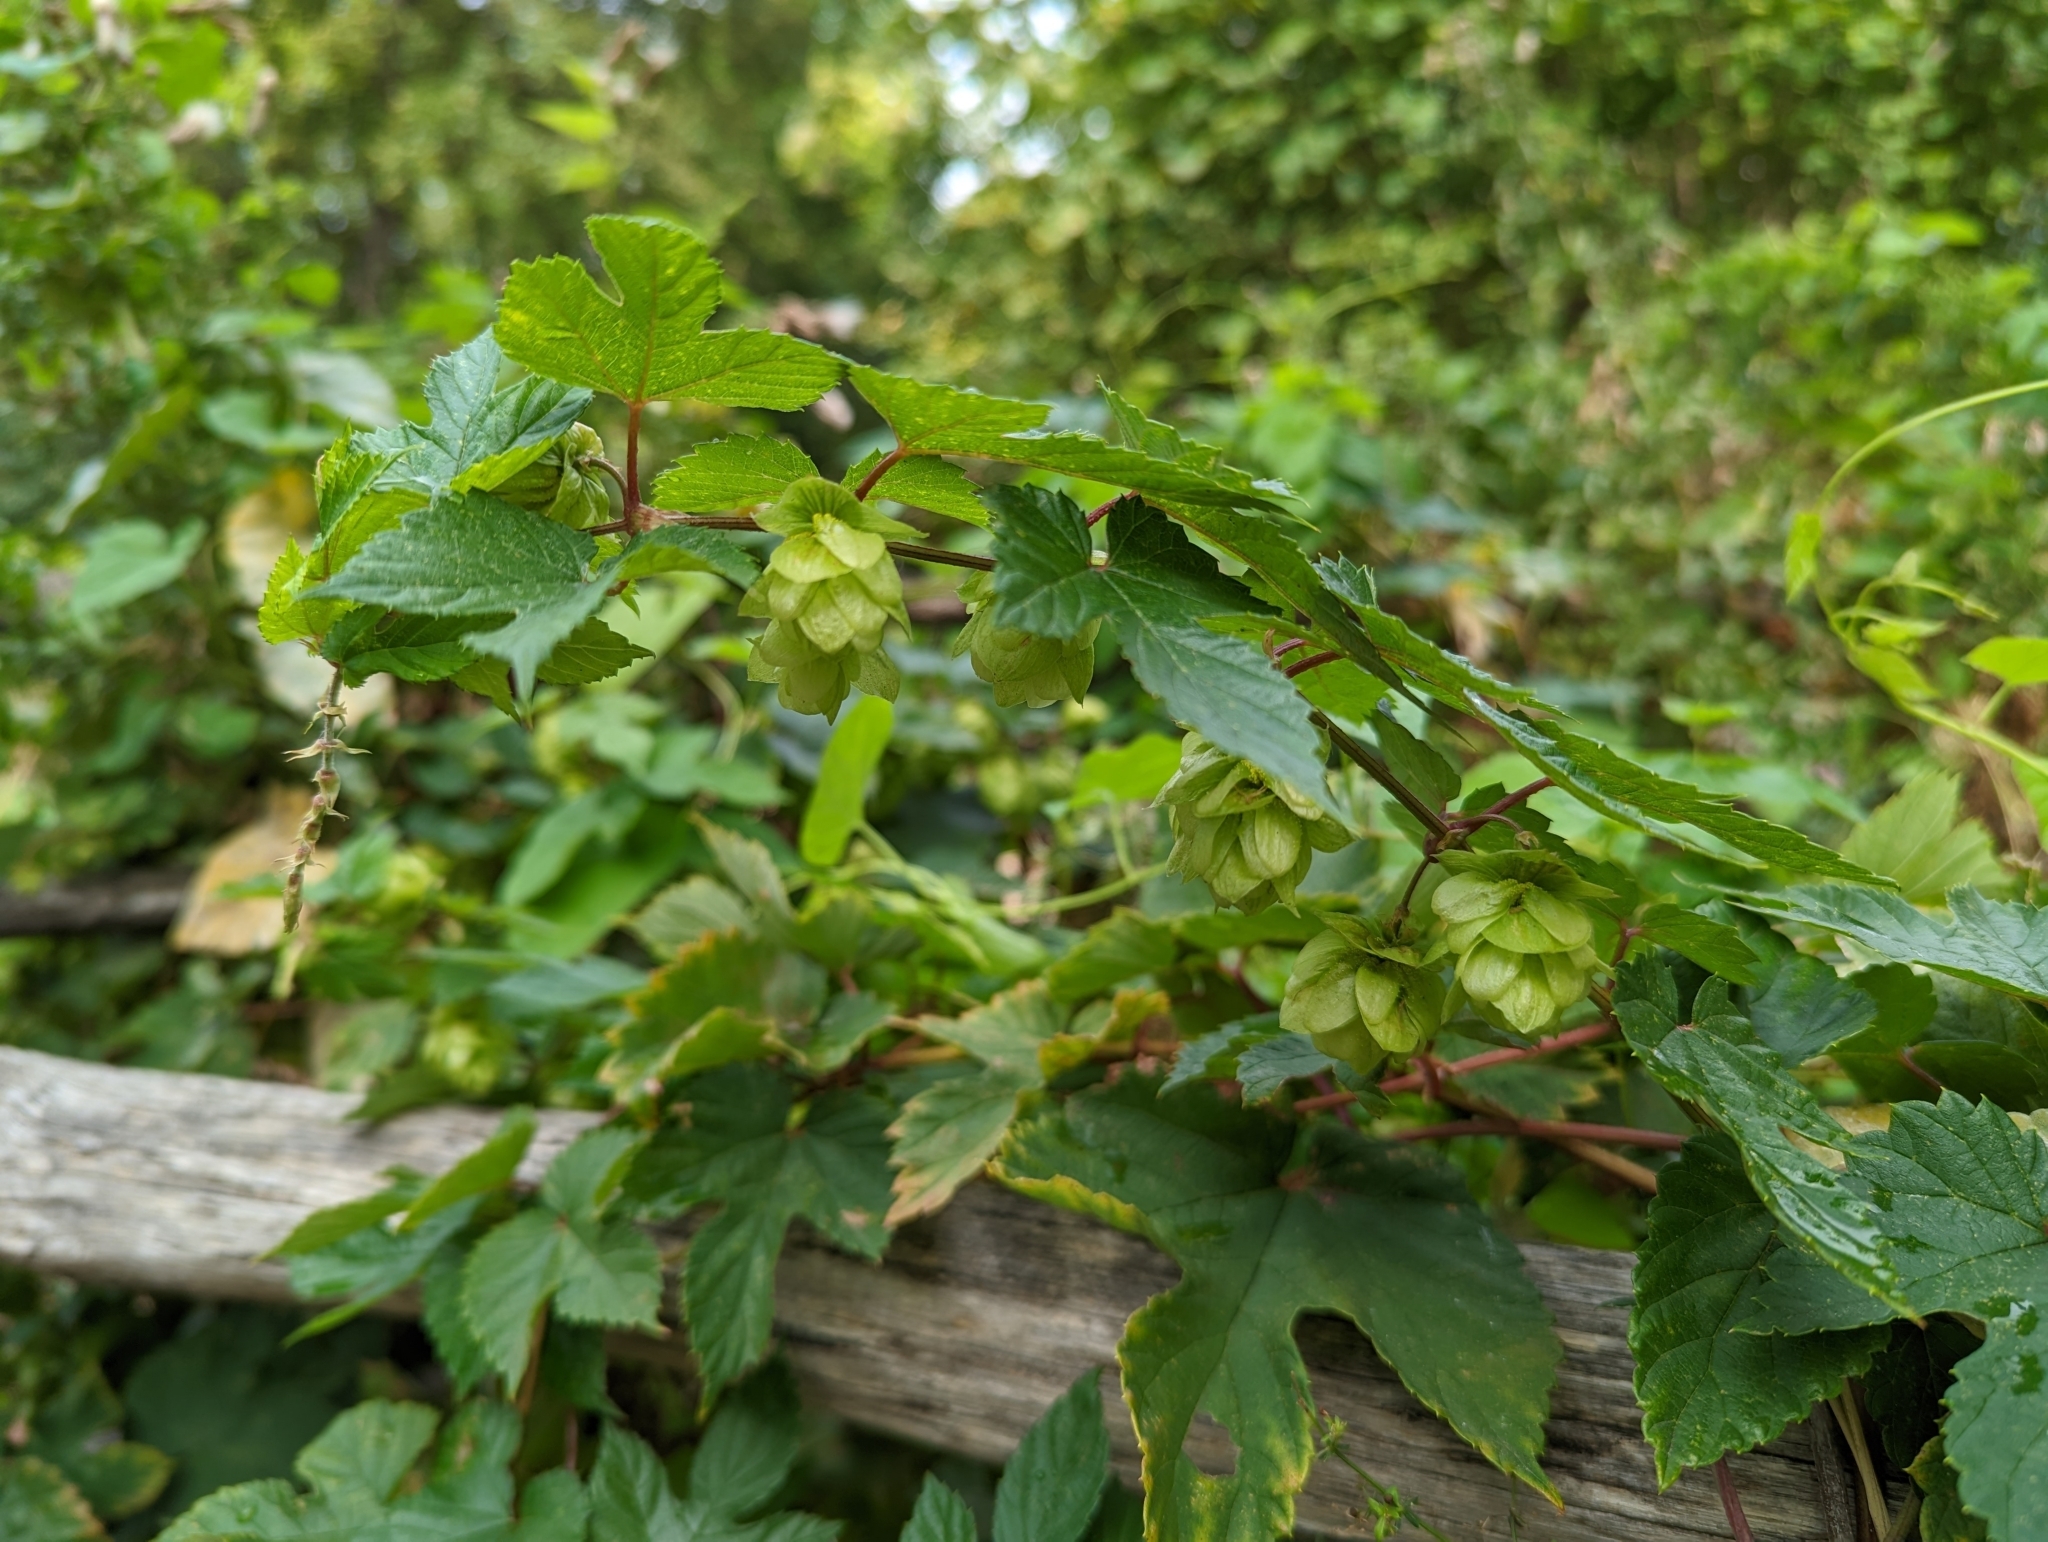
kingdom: Plantae
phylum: Tracheophyta
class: Magnoliopsida
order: Rosales
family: Cannabaceae
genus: Humulus
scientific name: Humulus lupulus
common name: Hop
